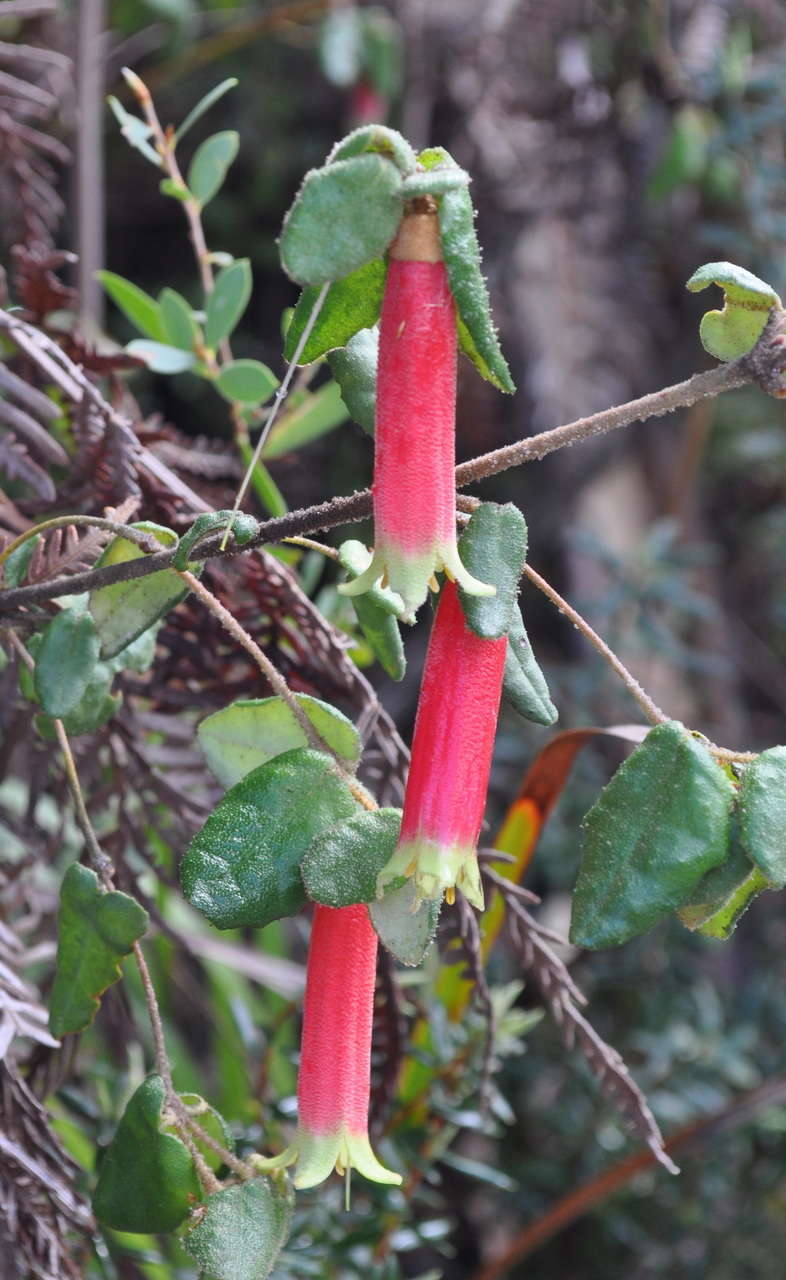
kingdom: Plantae
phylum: Tracheophyta
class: Magnoliopsida
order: Sapindales
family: Rutaceae
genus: Correa
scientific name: Correa reflexa
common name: Common correa
